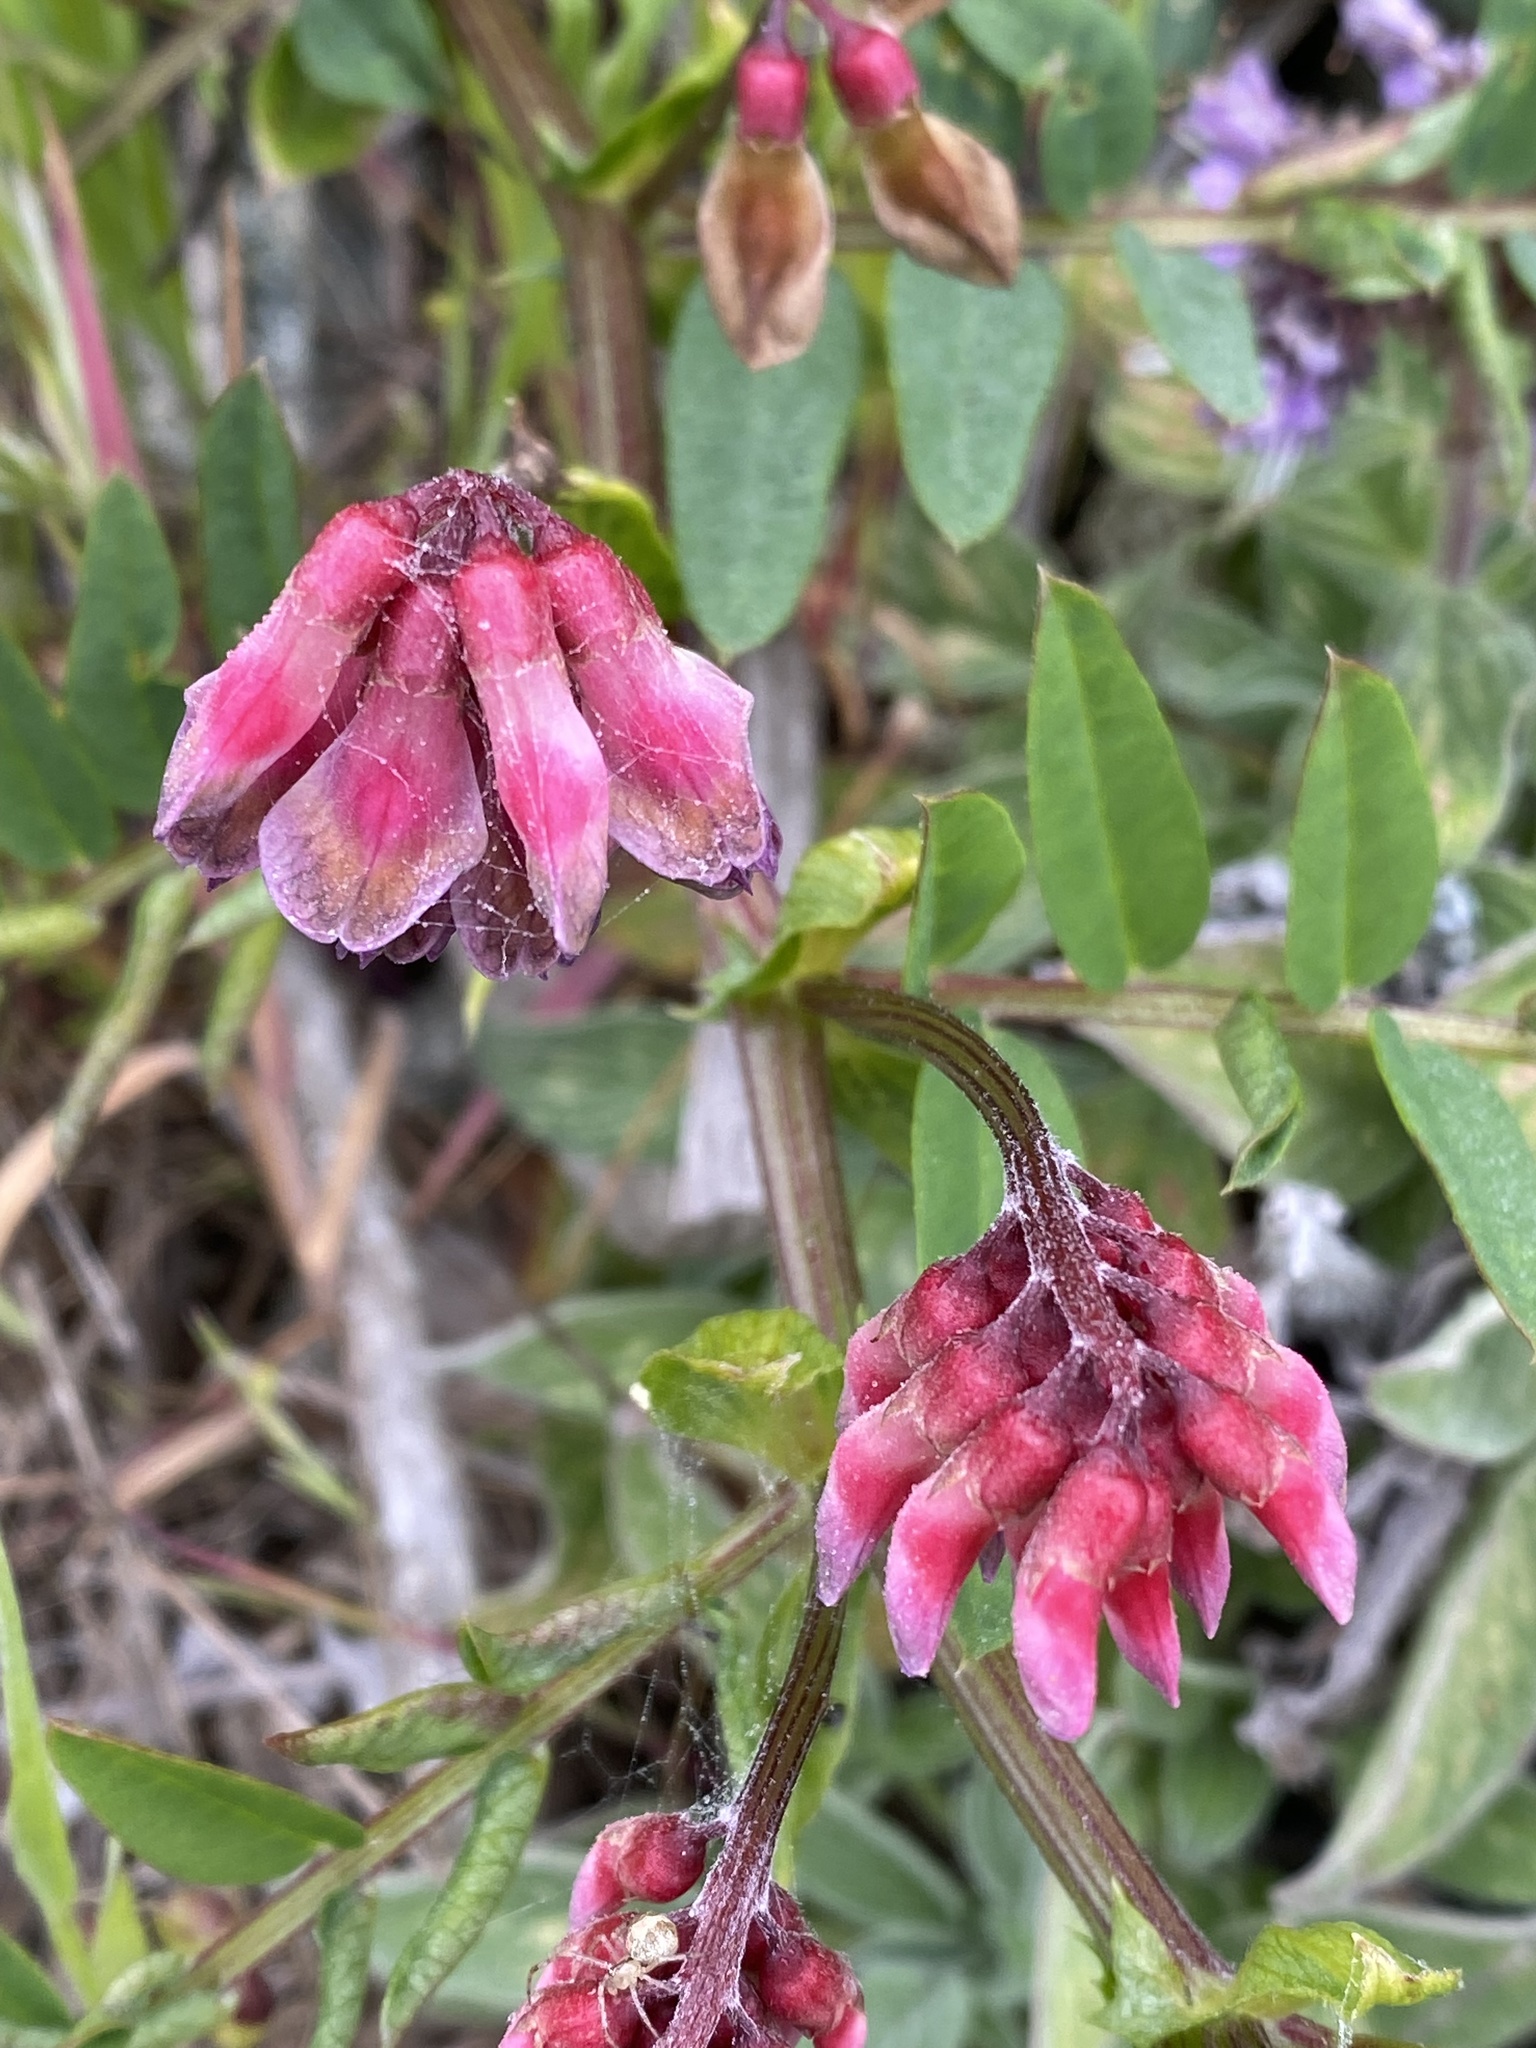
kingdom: Plantae
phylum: Tracheophyta
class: Magnoliopsida
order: Fabales
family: Fabaceae
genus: Vicia
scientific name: Vicia
